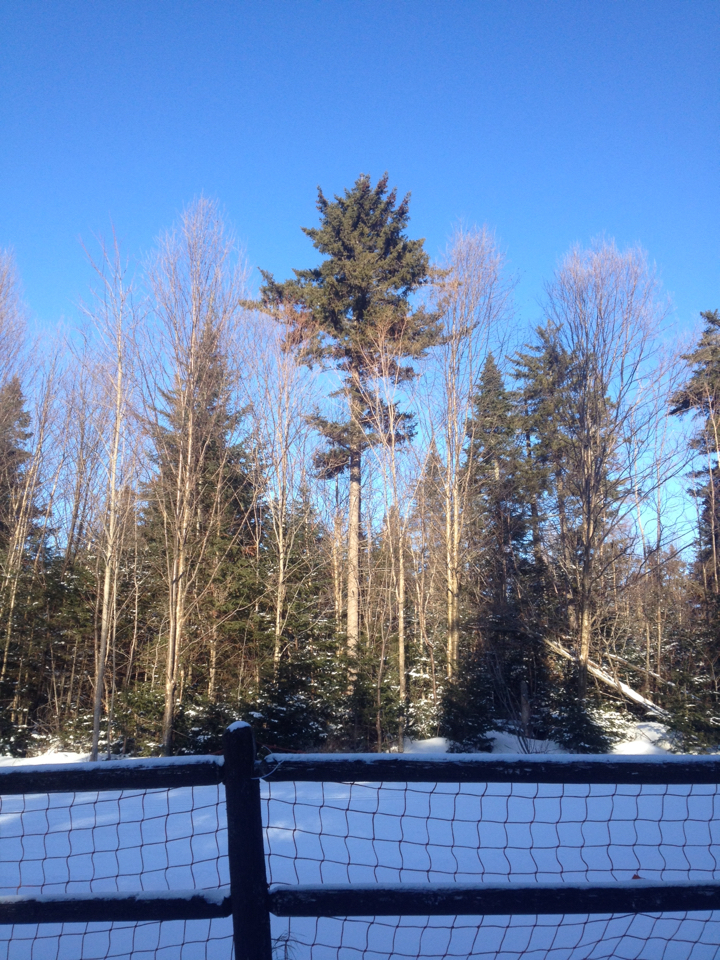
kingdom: Plantae
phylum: Tracheophyta
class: Pinopsida
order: Pinales
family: Pinaceae
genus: Picea
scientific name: Picea rubens
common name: Red spruce
